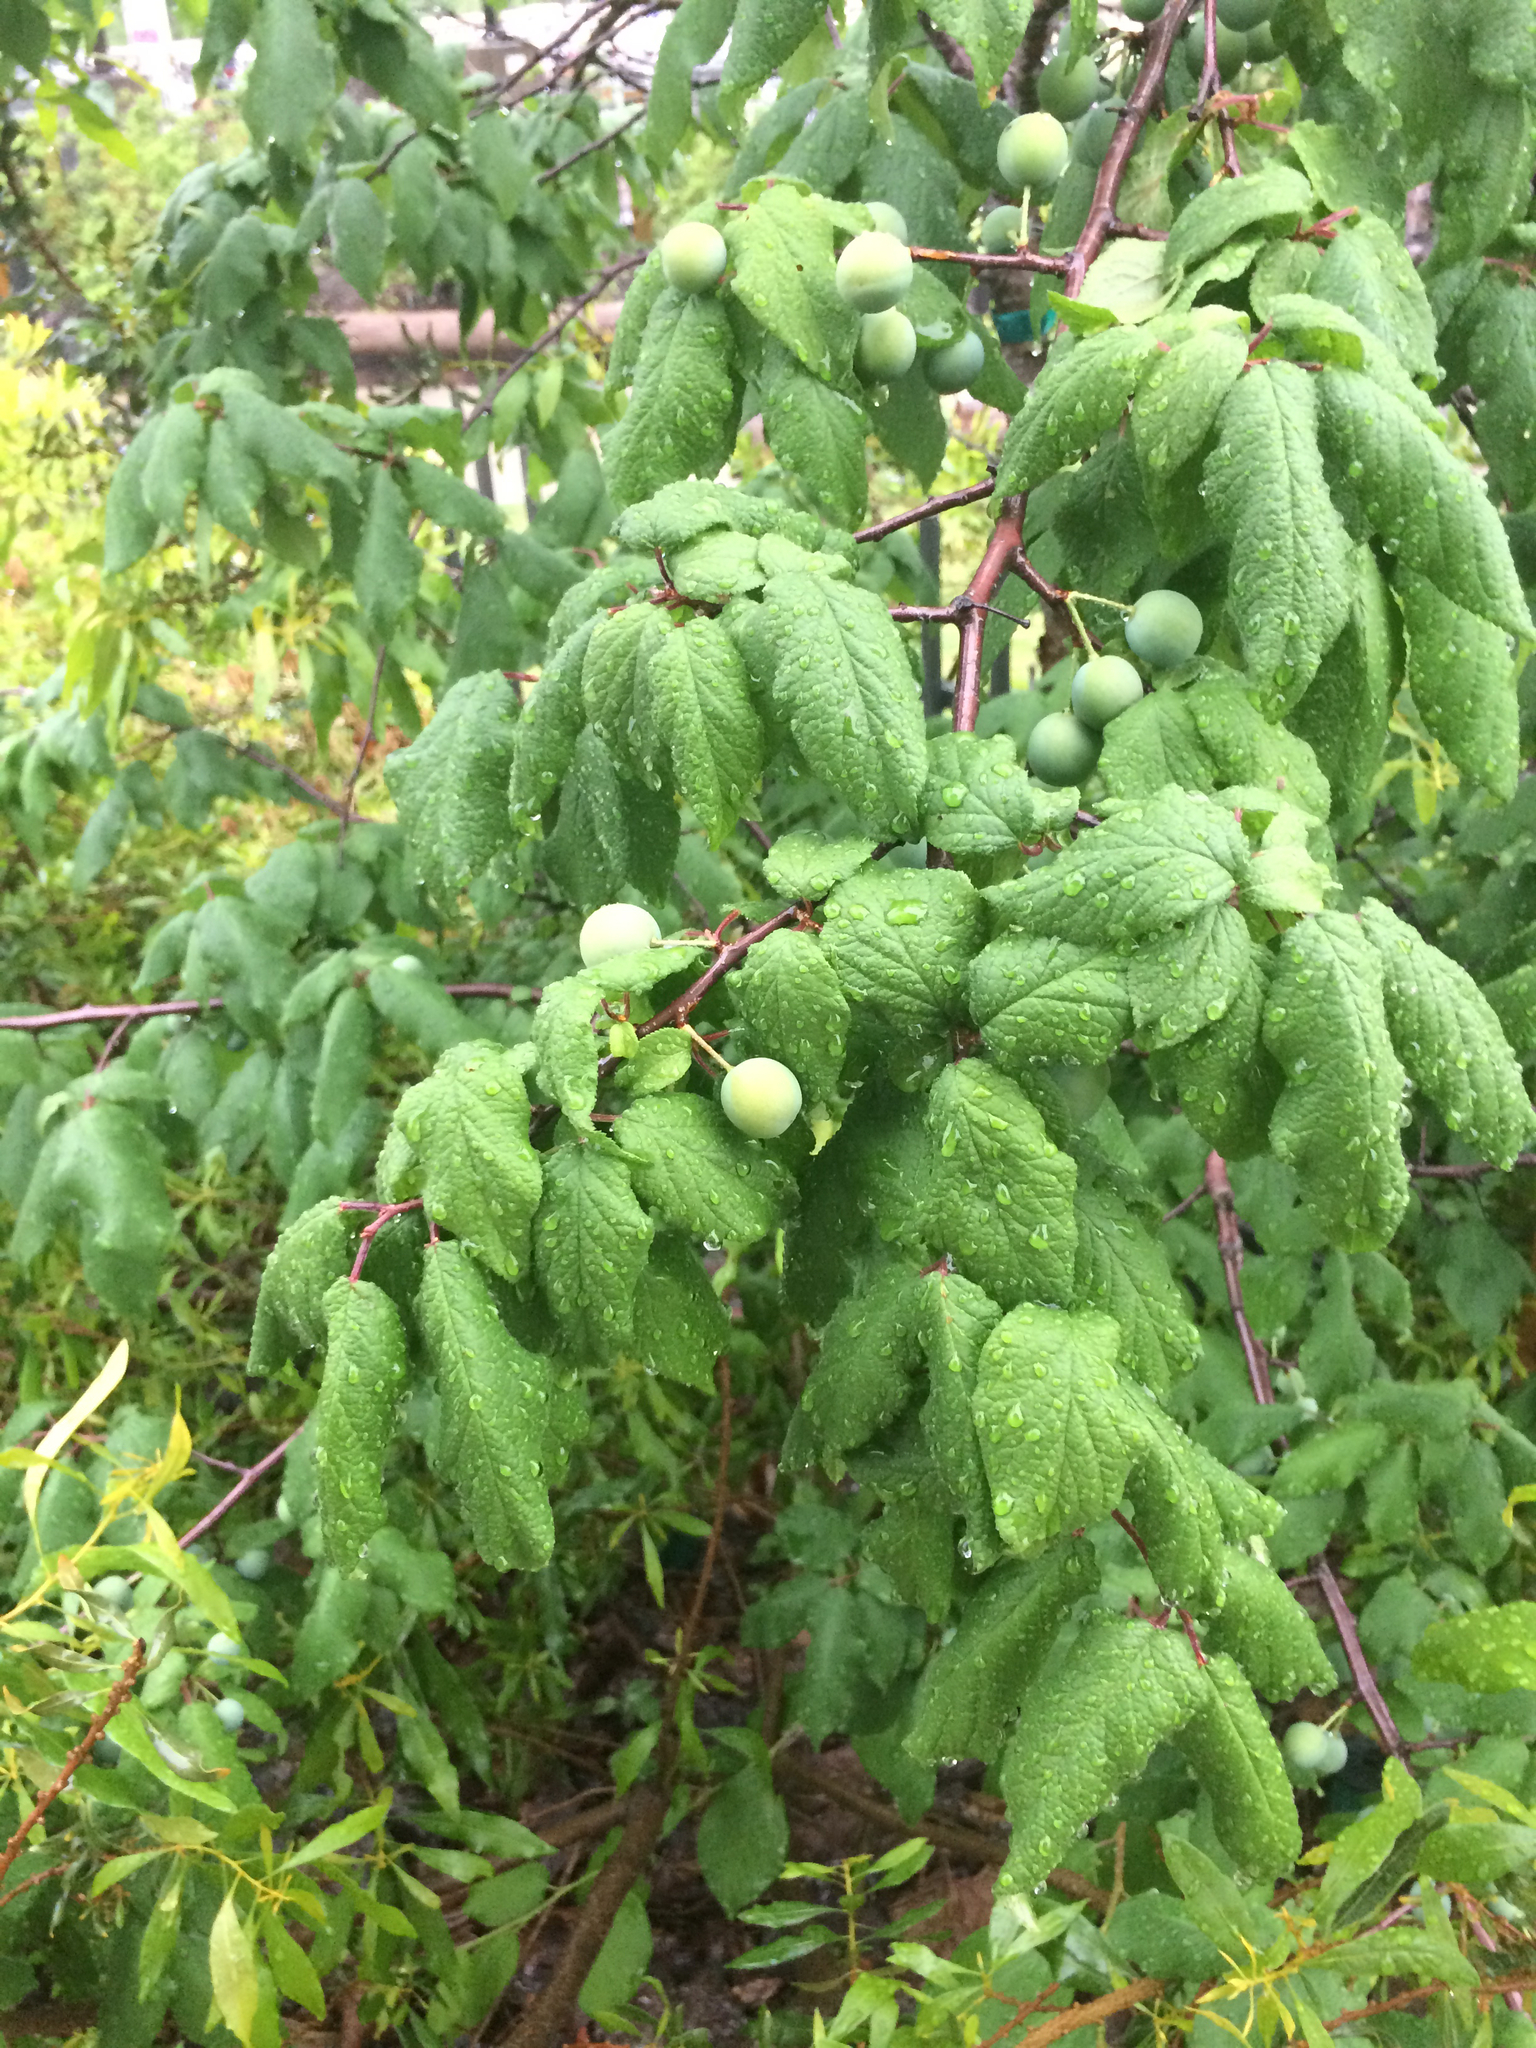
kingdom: Plantae
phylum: Tracheophyta
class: Magnoliopsida
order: Rosales
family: Rosaceae
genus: Prunus
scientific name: Prunus mexicana
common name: Mexican plum
